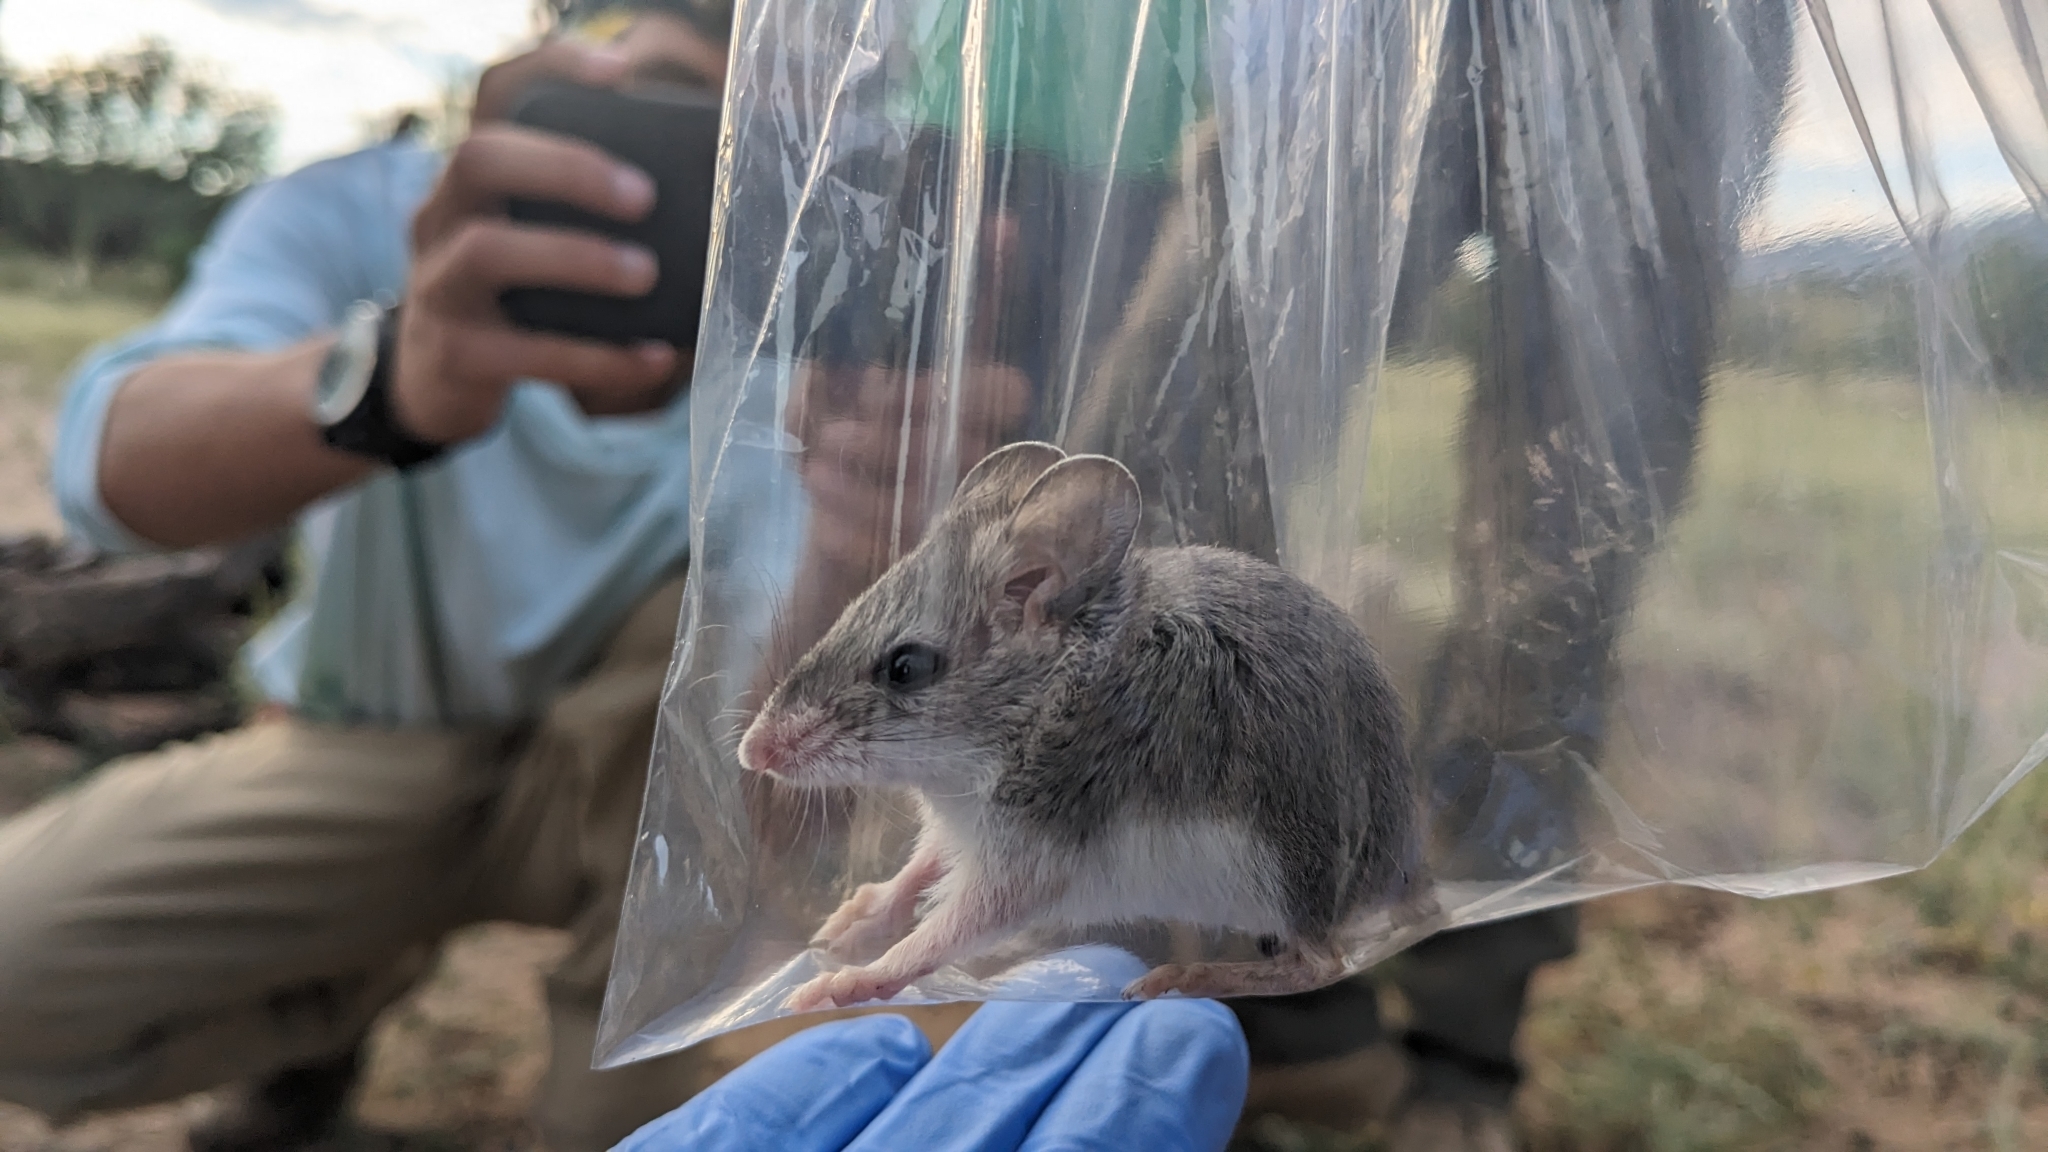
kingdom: Animalia
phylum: Chordata
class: Mammalia
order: Rodentia
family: Cricetidae
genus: Onychomys
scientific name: Onychomys torridus
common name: Southern grasshopper mouse
